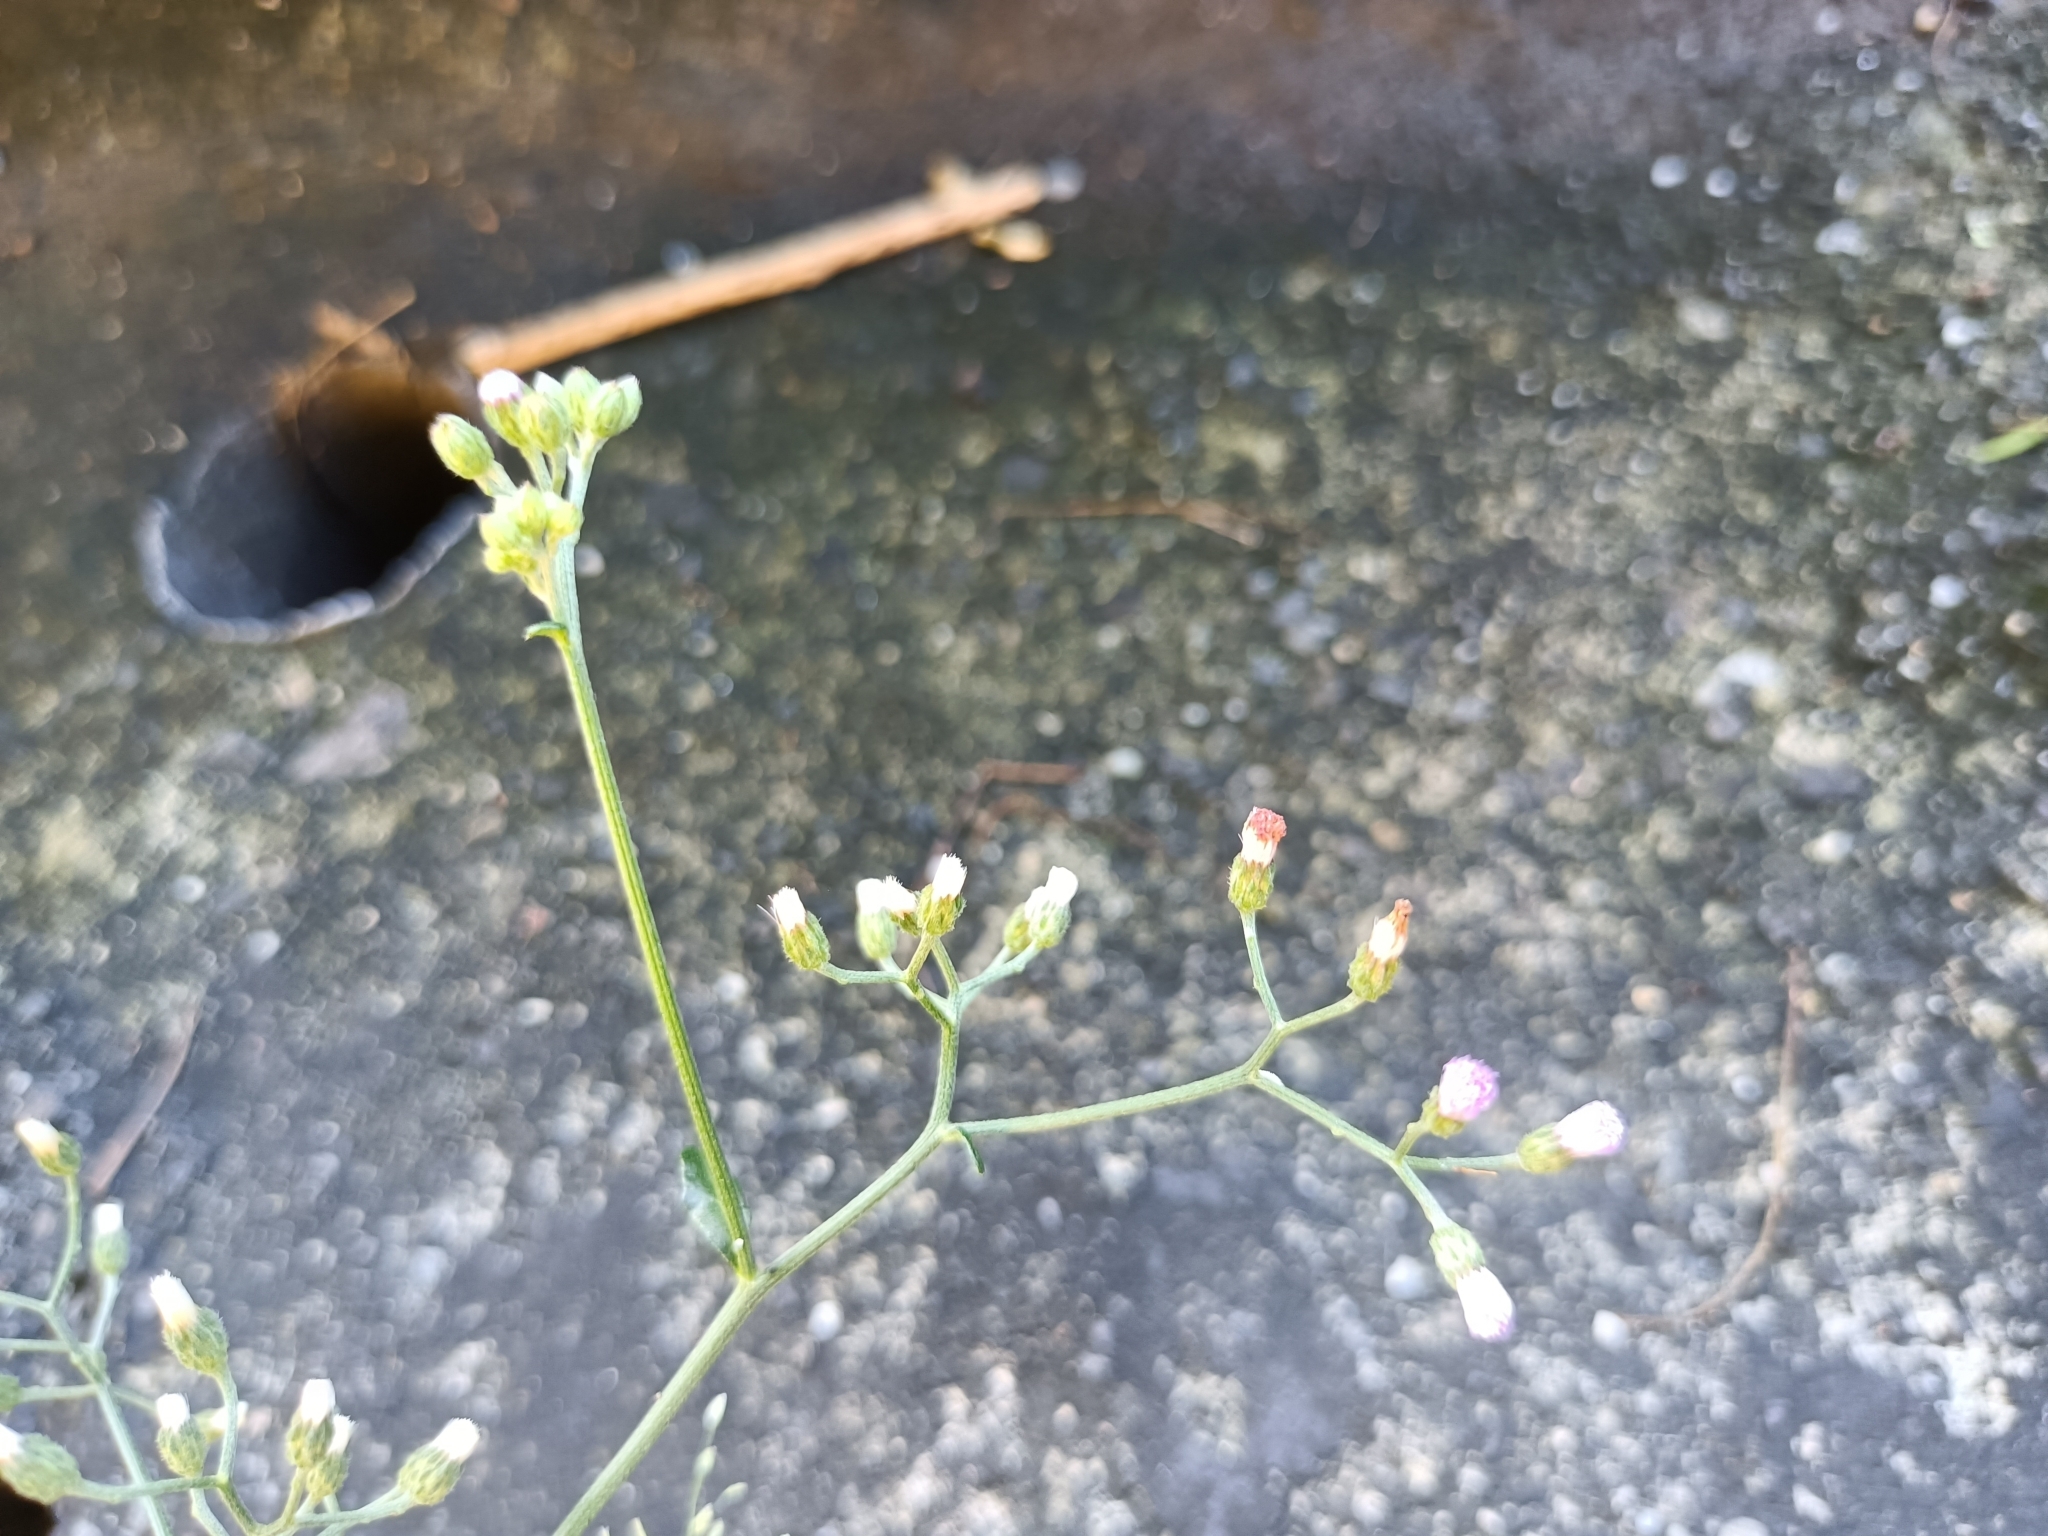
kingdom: Plantae
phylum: Tracheophyta
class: Magnoliopsida
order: Asterales
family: Asteraceae
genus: Cyanthillium
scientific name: Cyanthillium cinereum
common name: Little ironweed
